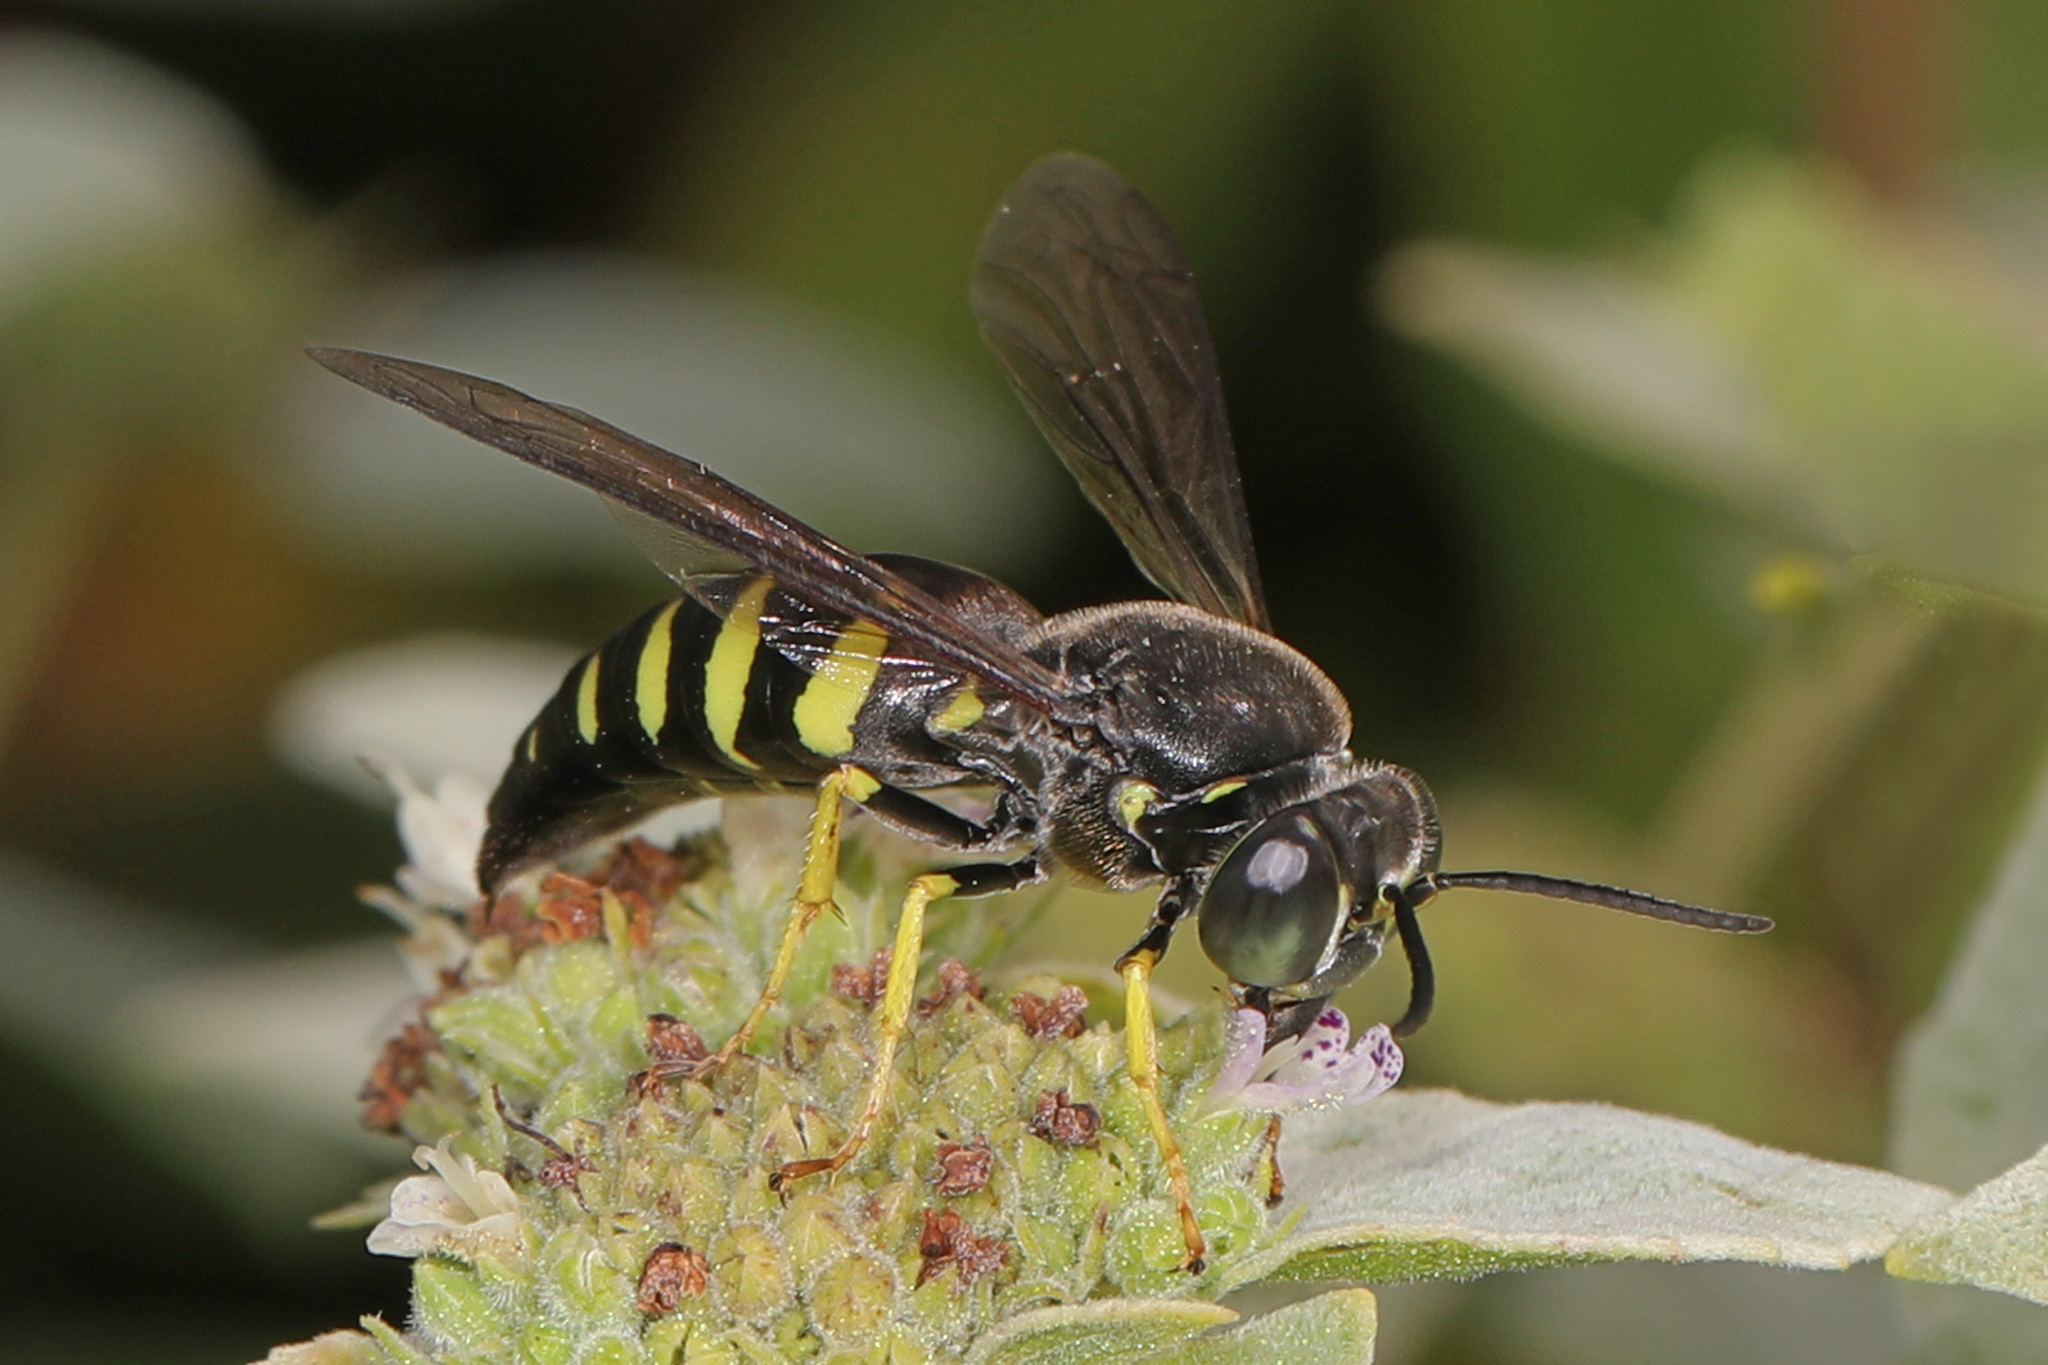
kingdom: Animalia
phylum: Arthropoda
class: Insecta
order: Hymenoptera
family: Crabronidae
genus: Bicyrtes
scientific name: Bicyrtes quadrifasciatus
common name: Four-banded stink bug hunter wasp
